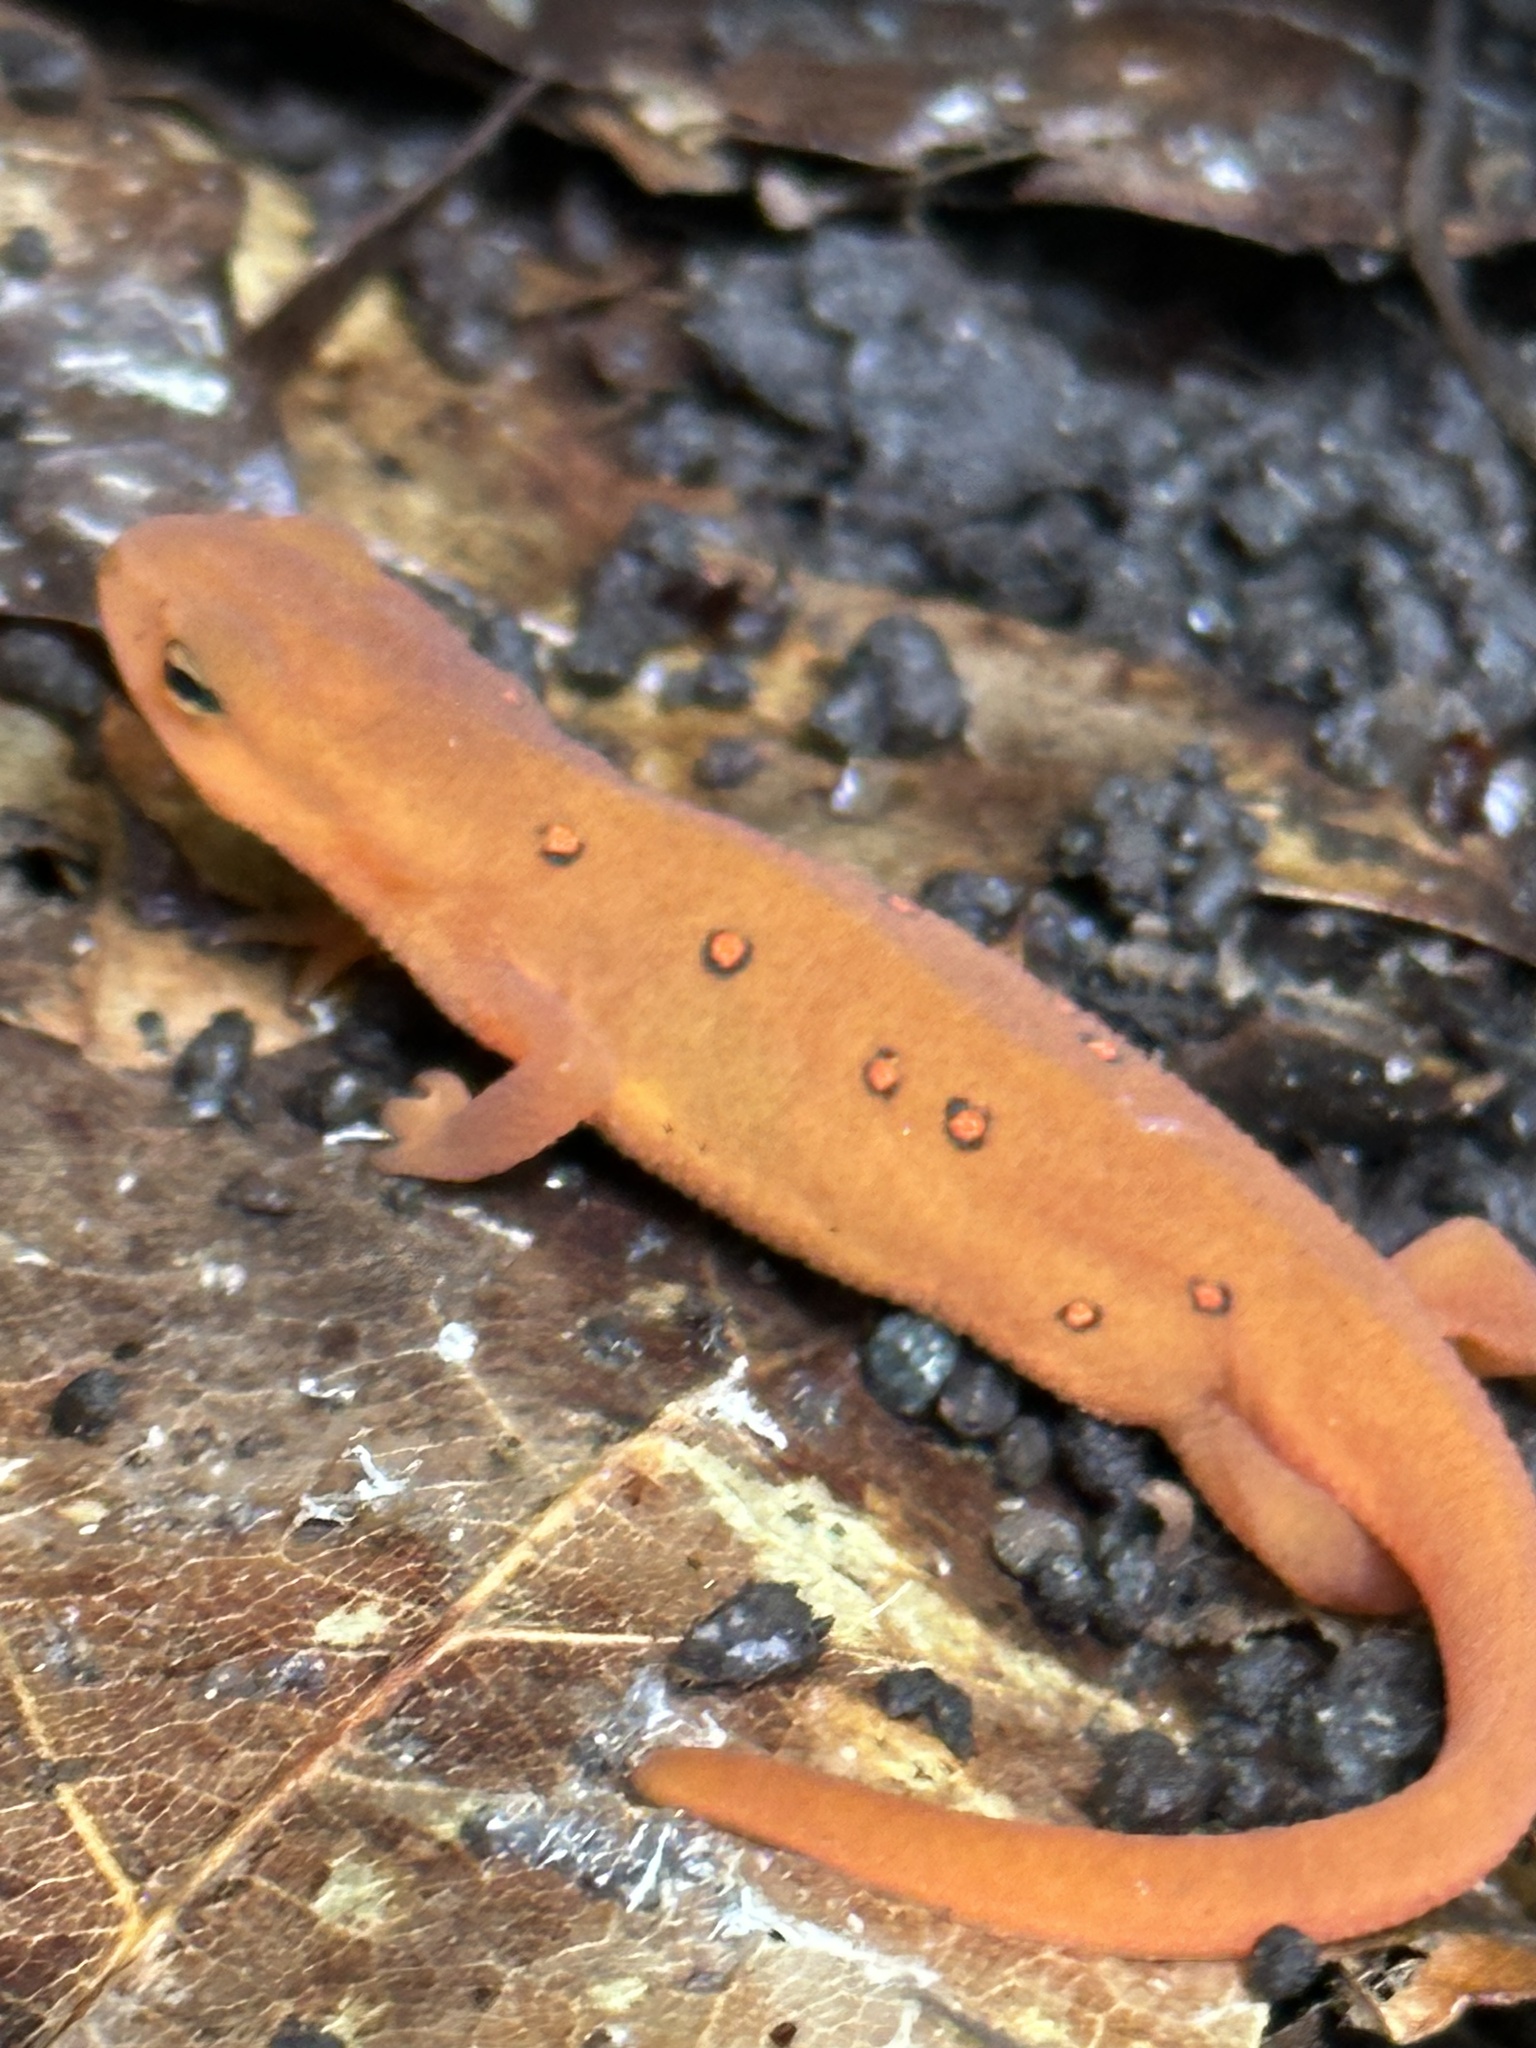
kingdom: Animalia
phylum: Chordata
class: Amphibia
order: Caudata
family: Salamandridae
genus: Notophthalmus
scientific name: Notophthalmus viridescens
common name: Eastern newt
